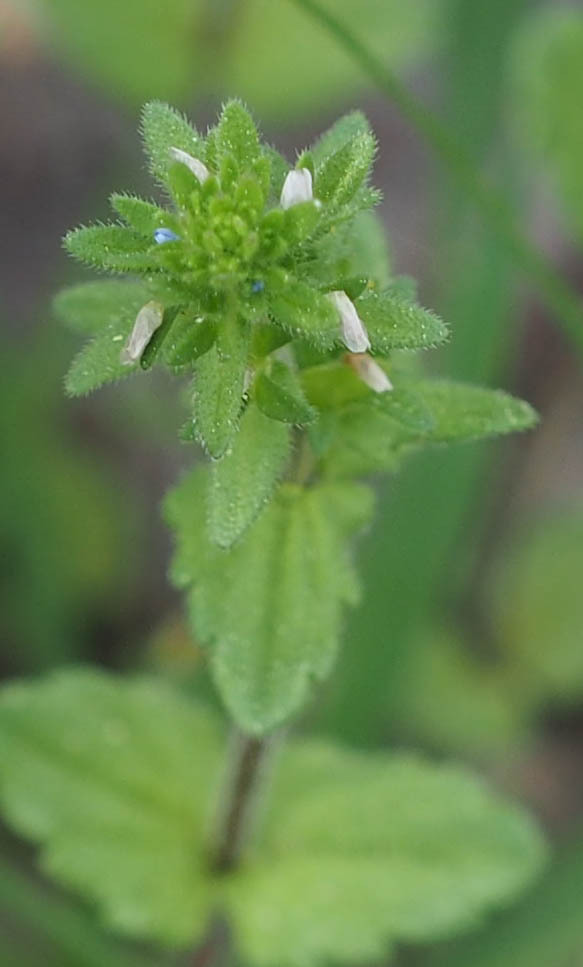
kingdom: Plantae
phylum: Tracheophyta
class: Magnoliopsida
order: Lamiales
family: Plantaginaceae
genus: Veronica
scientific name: Veronica arvensis
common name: Corn speedwell
